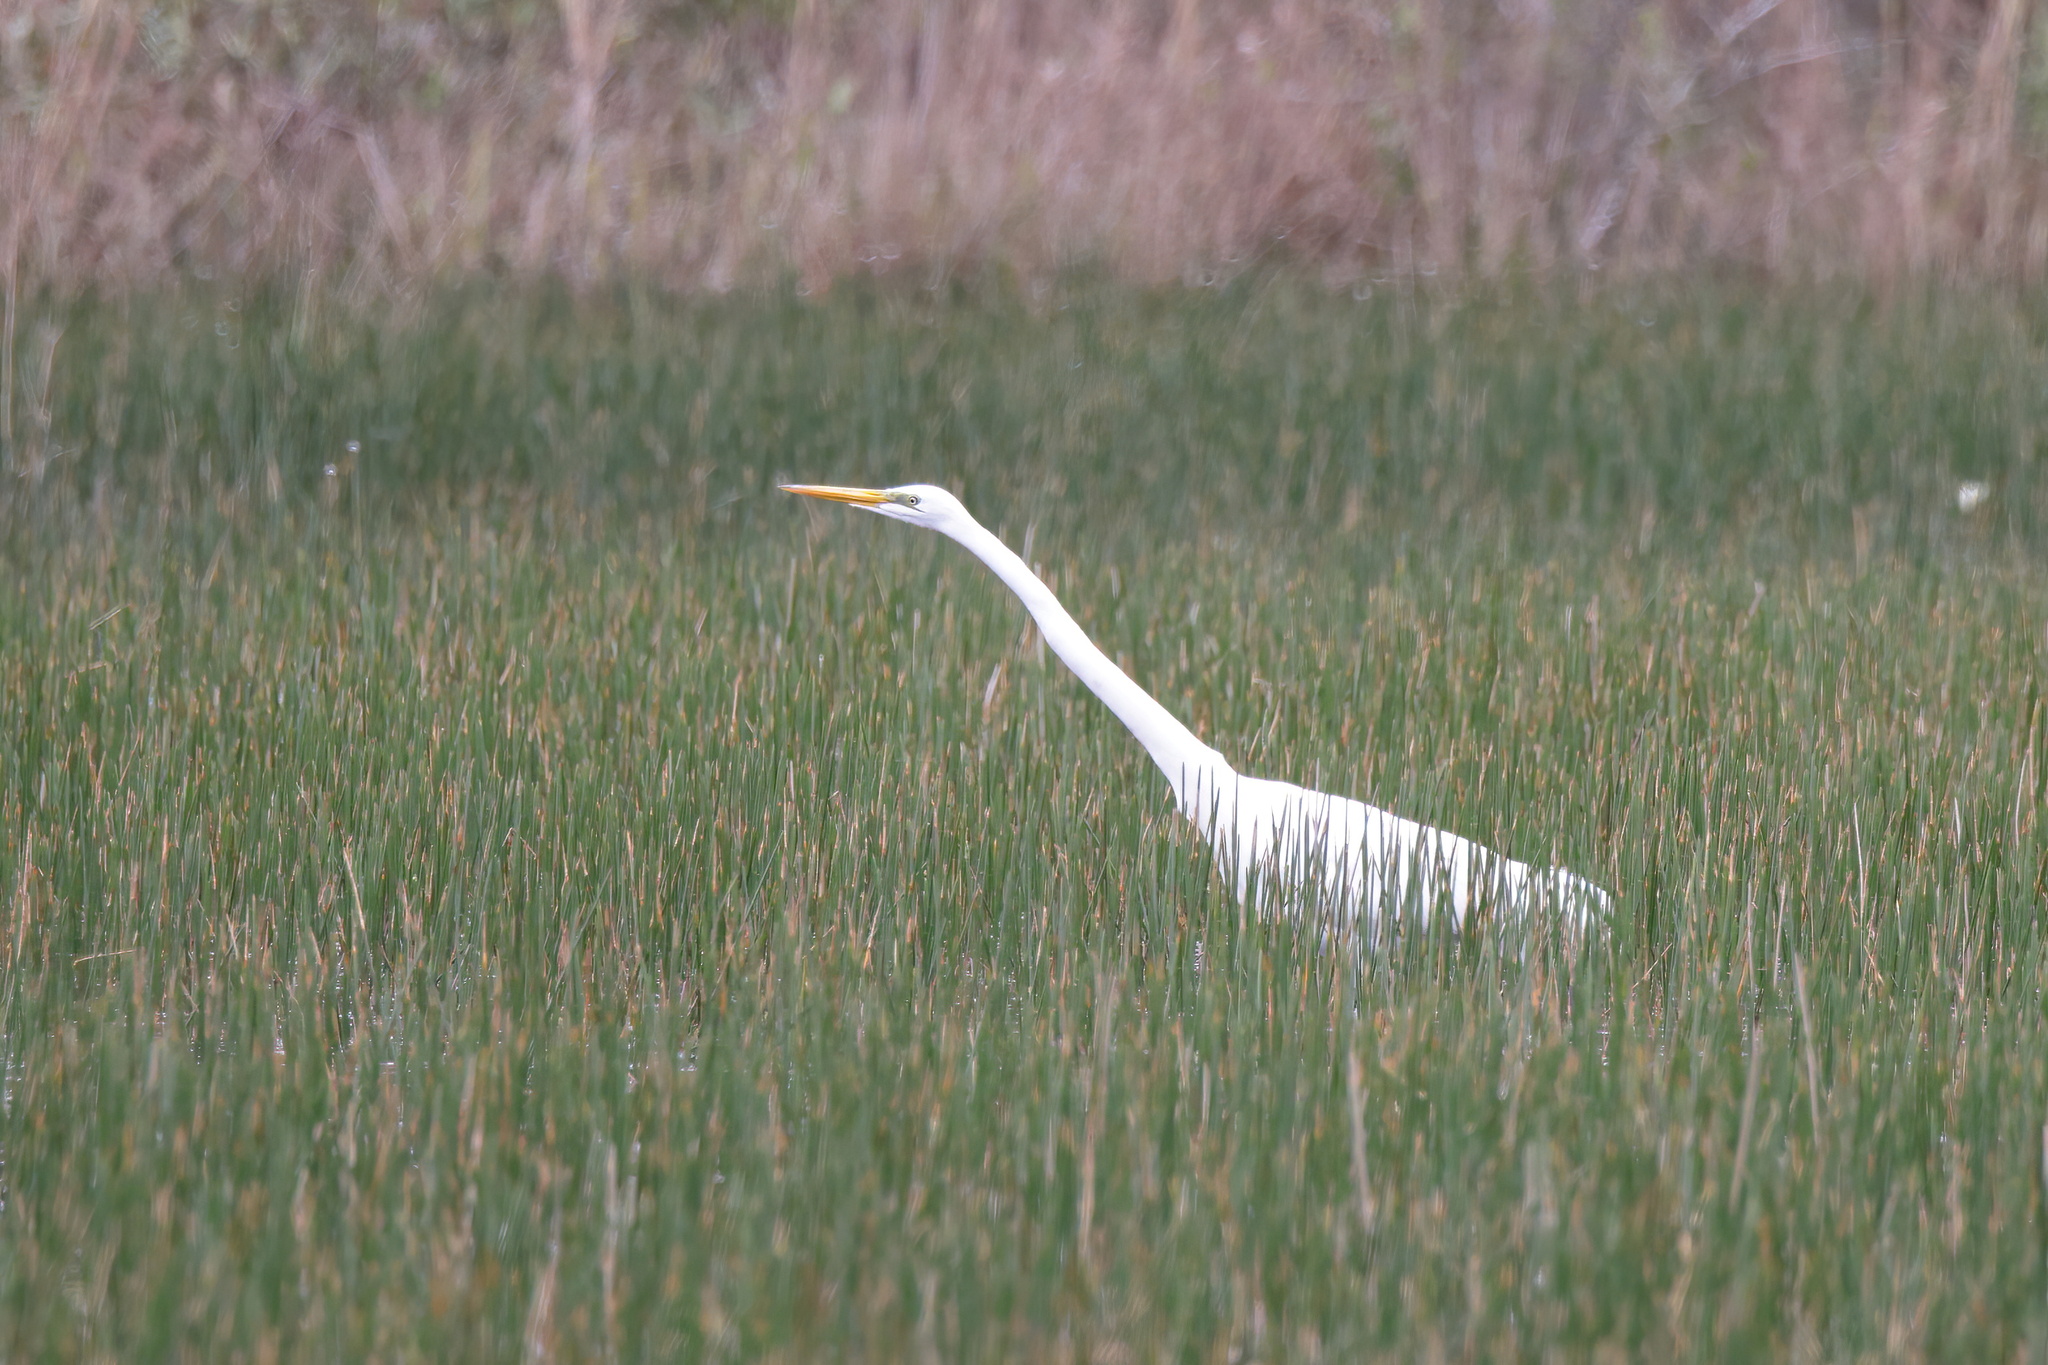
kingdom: Animalia
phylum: Chordata
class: Aves
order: Pelecaniformes
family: Ardeidae
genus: Ardea
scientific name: Ardea alba
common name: Great egret
